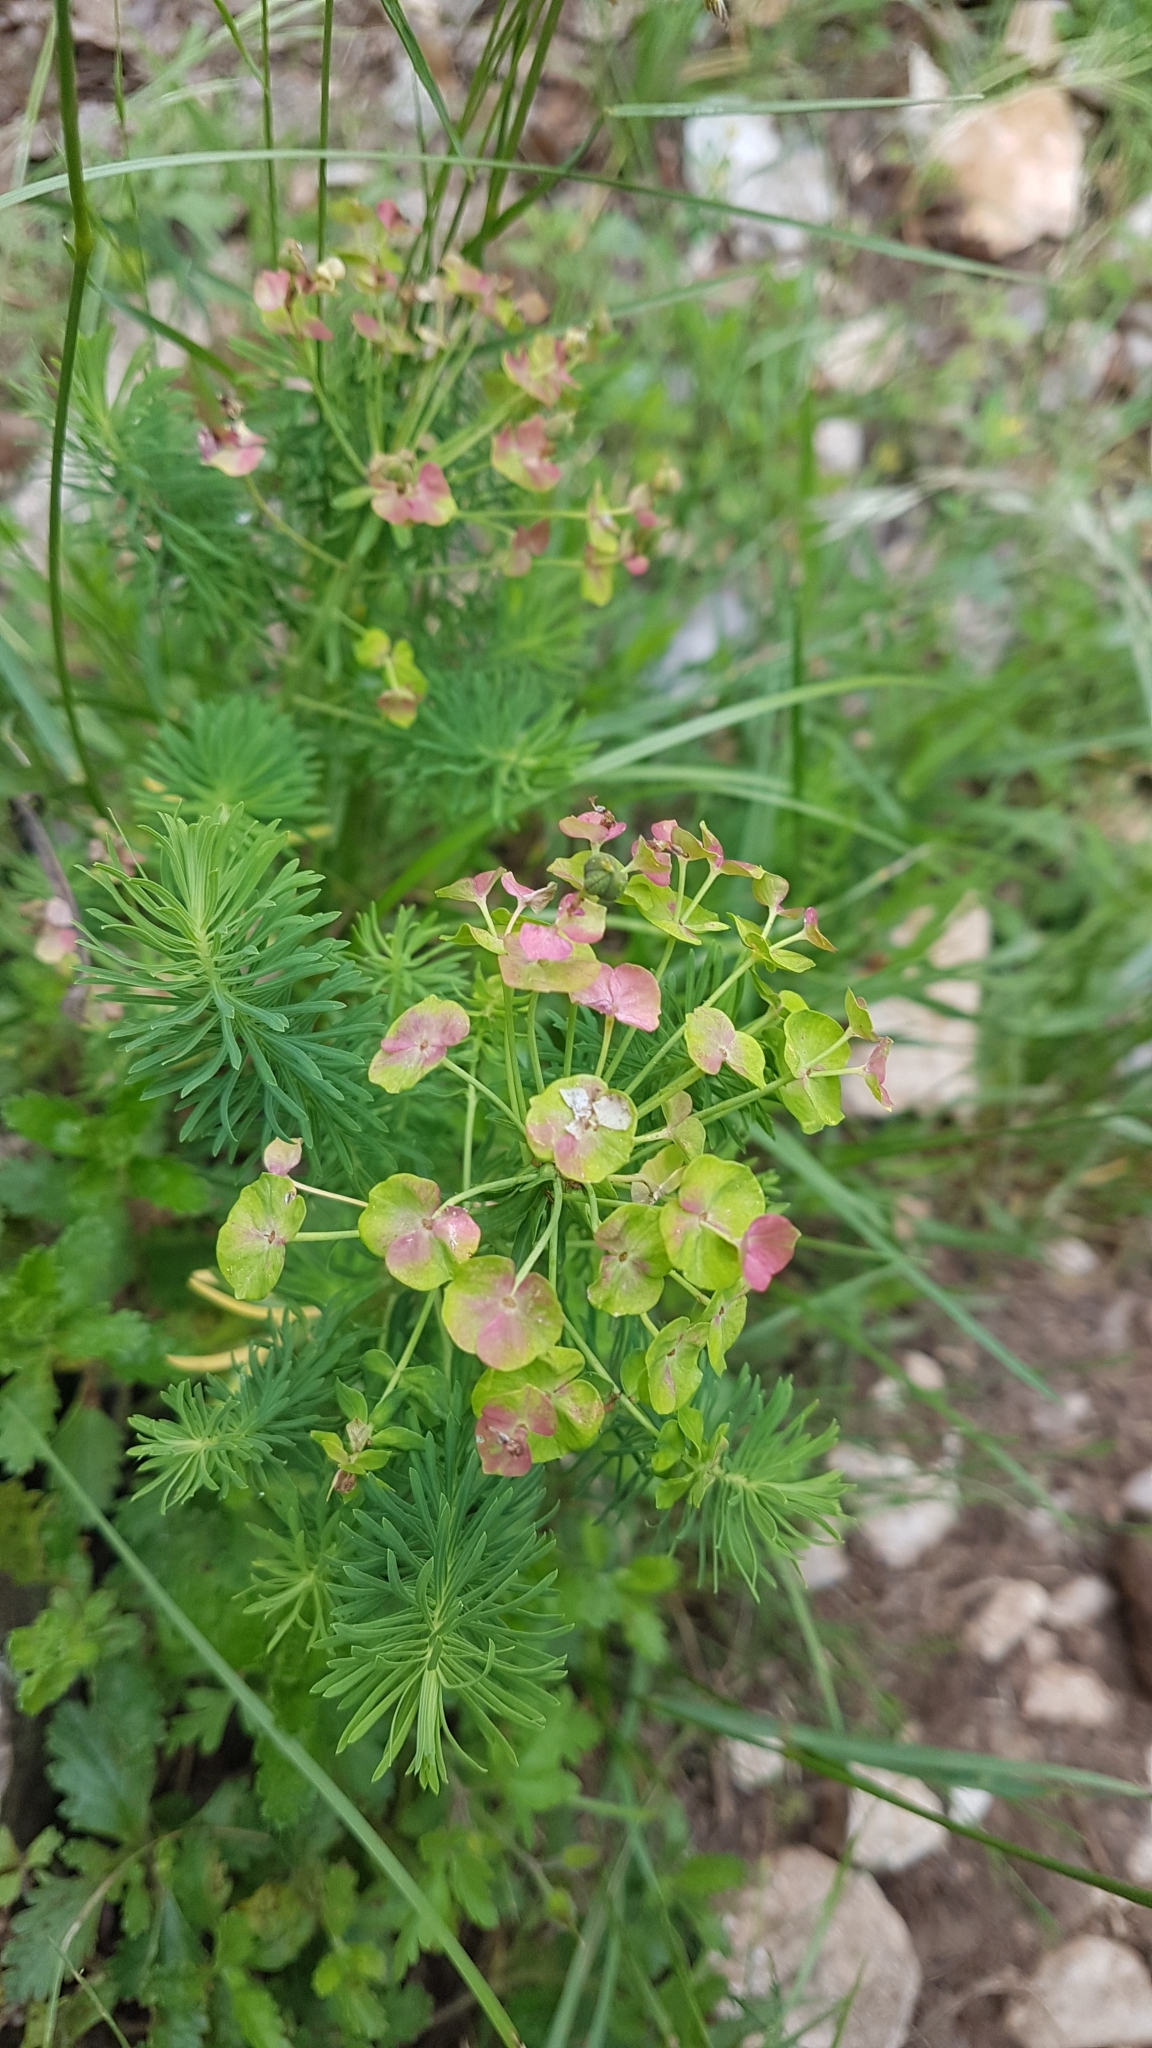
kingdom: Plantae
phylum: Tracheophyta
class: Magnoliopsida
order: Malpighiales
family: Euphorbiaceae
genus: Euphorbia
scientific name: Euphorbia cyparissias
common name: Cypress spurge
